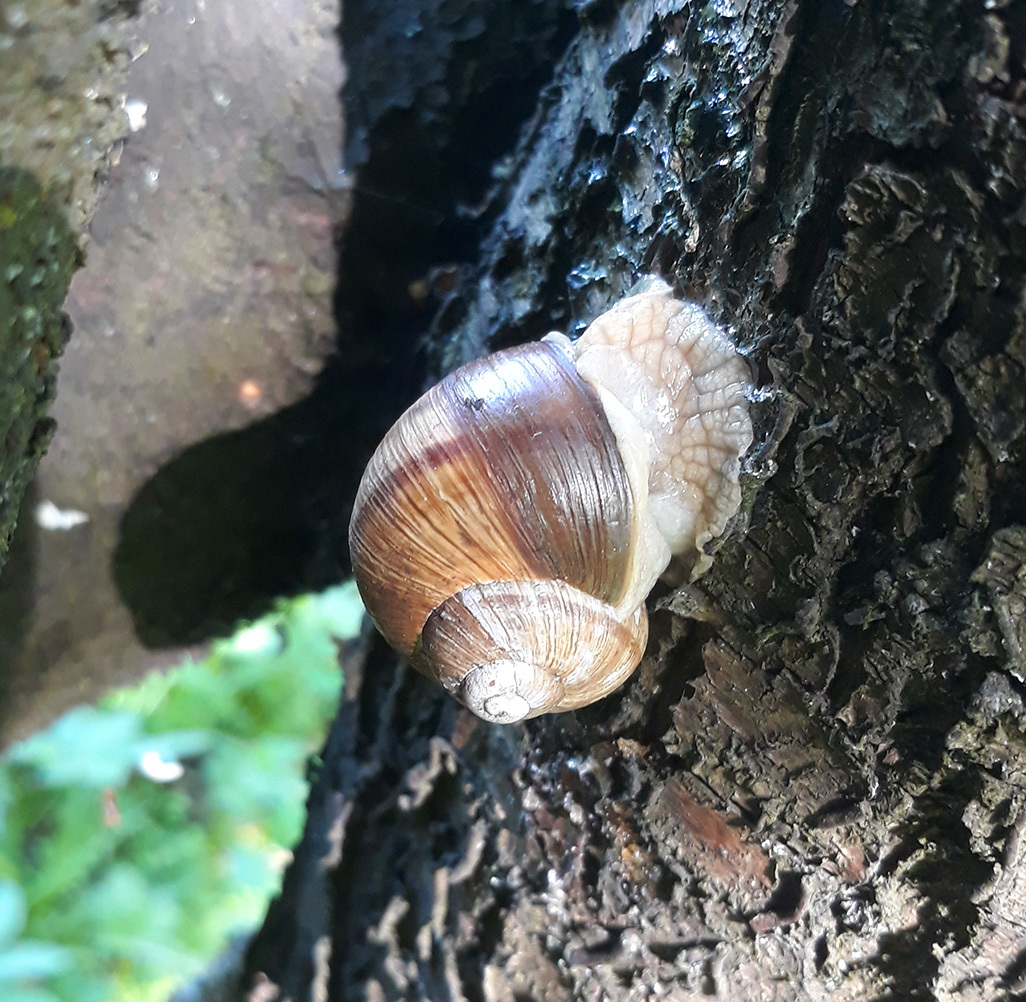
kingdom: Animalia
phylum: Mollusca
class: Gastropoda
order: Stylommatophora
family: Helicidae
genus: Helix
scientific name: Helix pomatia
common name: Roman snail
